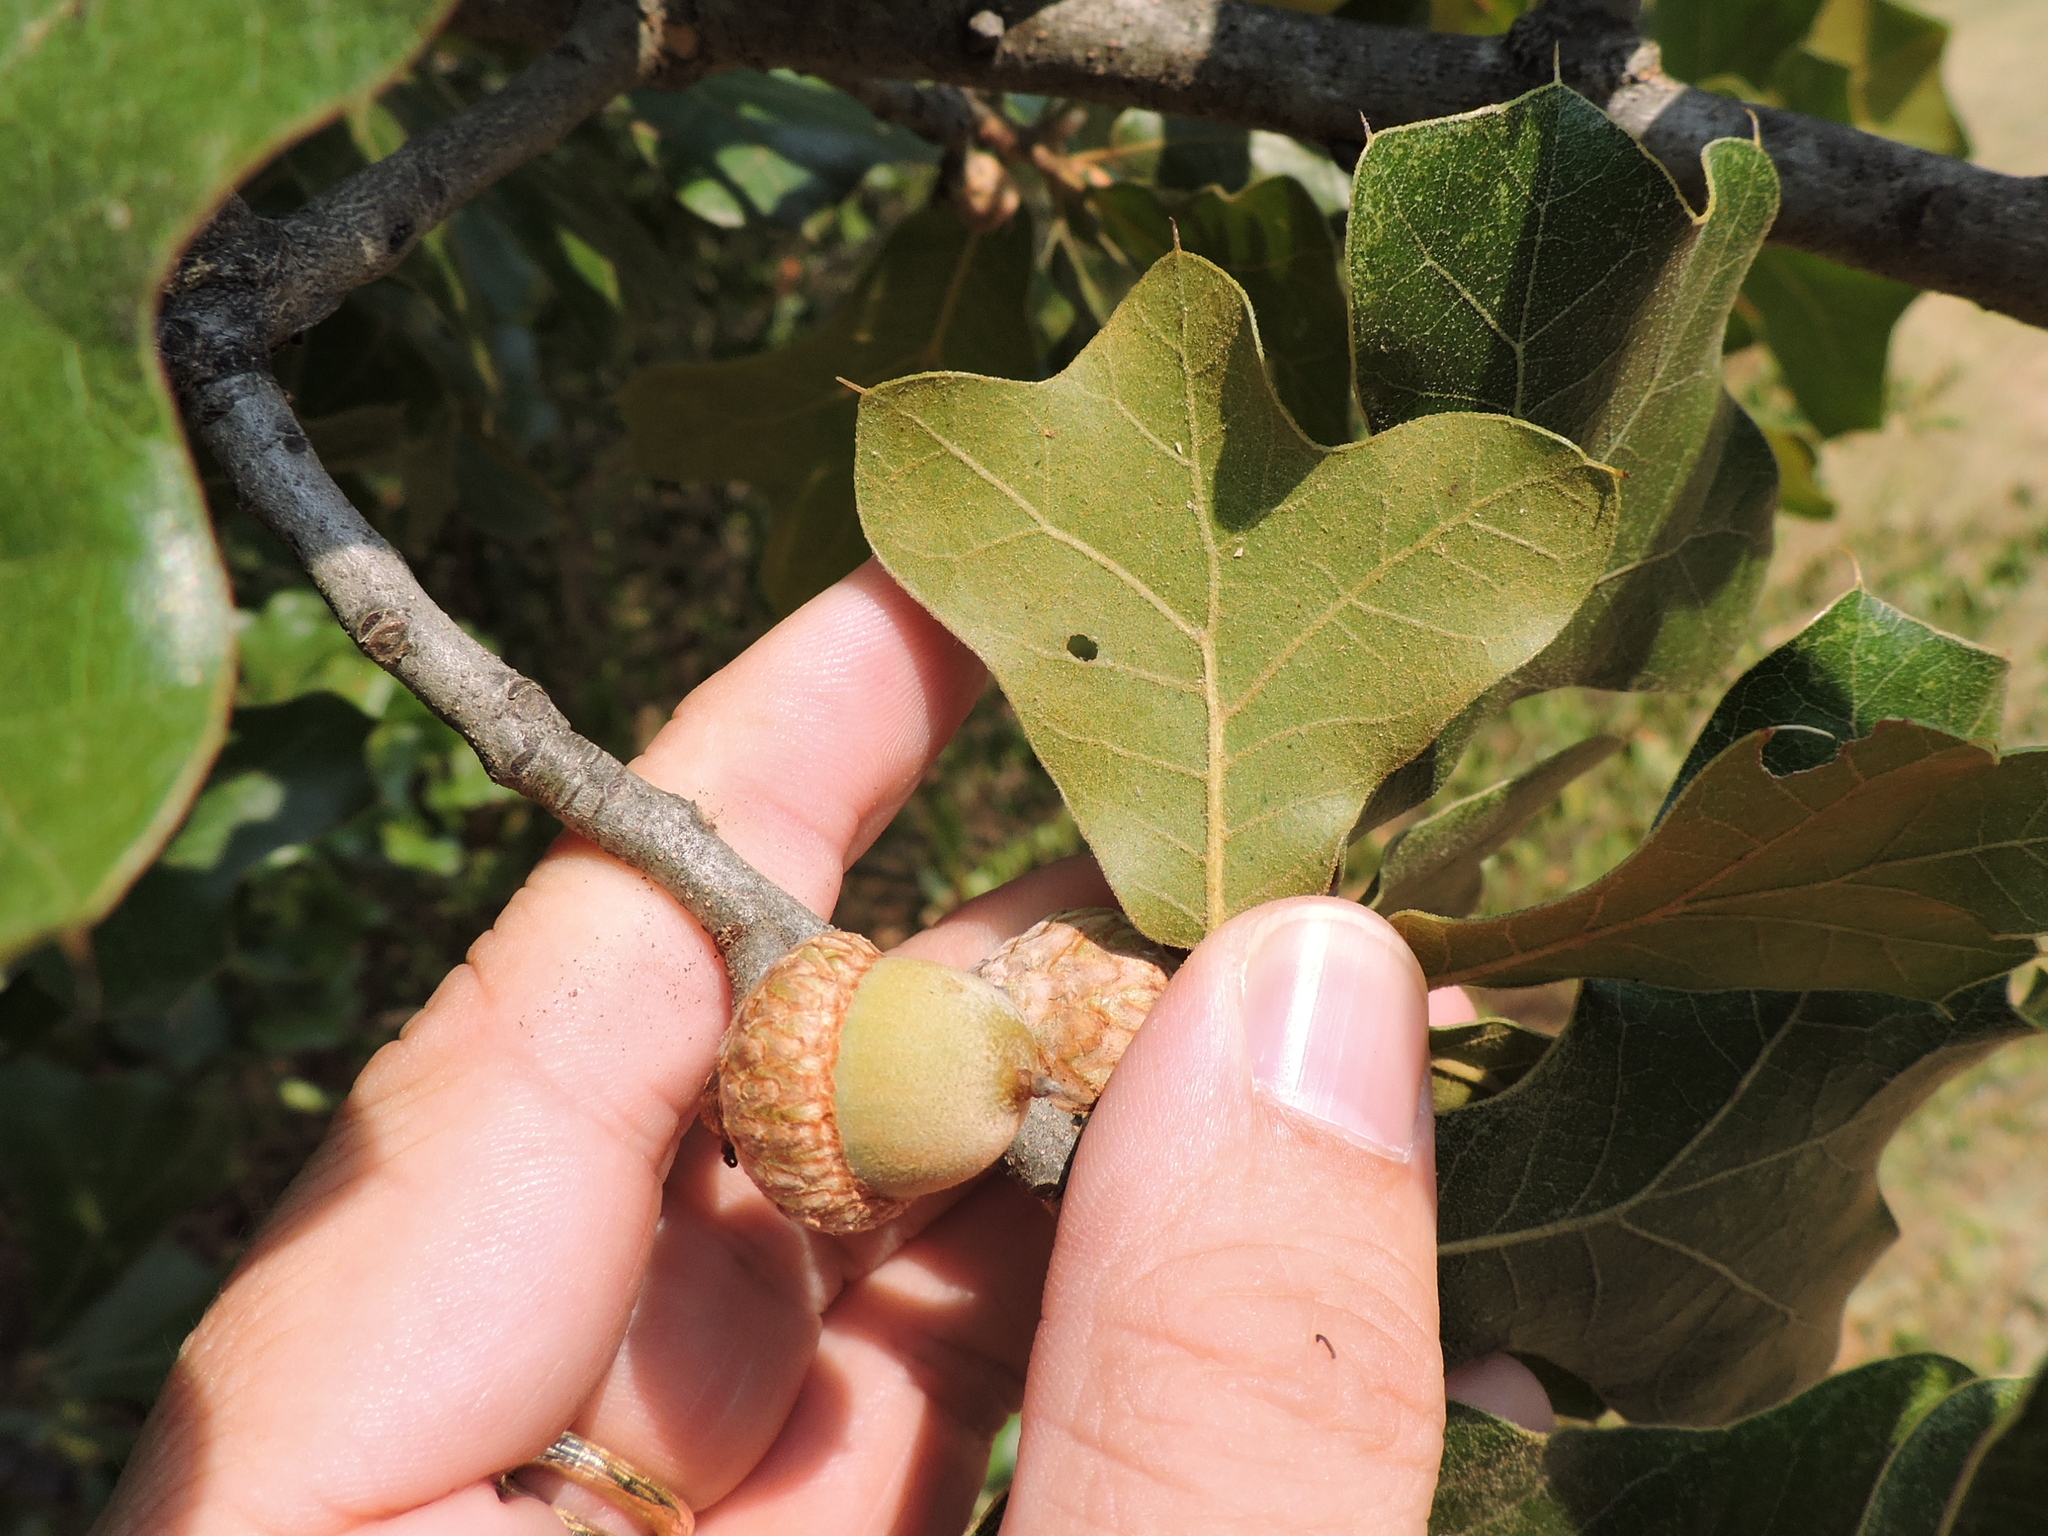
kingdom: Plantae
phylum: Tracheophyta
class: Magnoliopsida
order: Fagales
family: Fagaceae
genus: Quercus
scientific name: Quercus marilandica
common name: Blackjack oak
